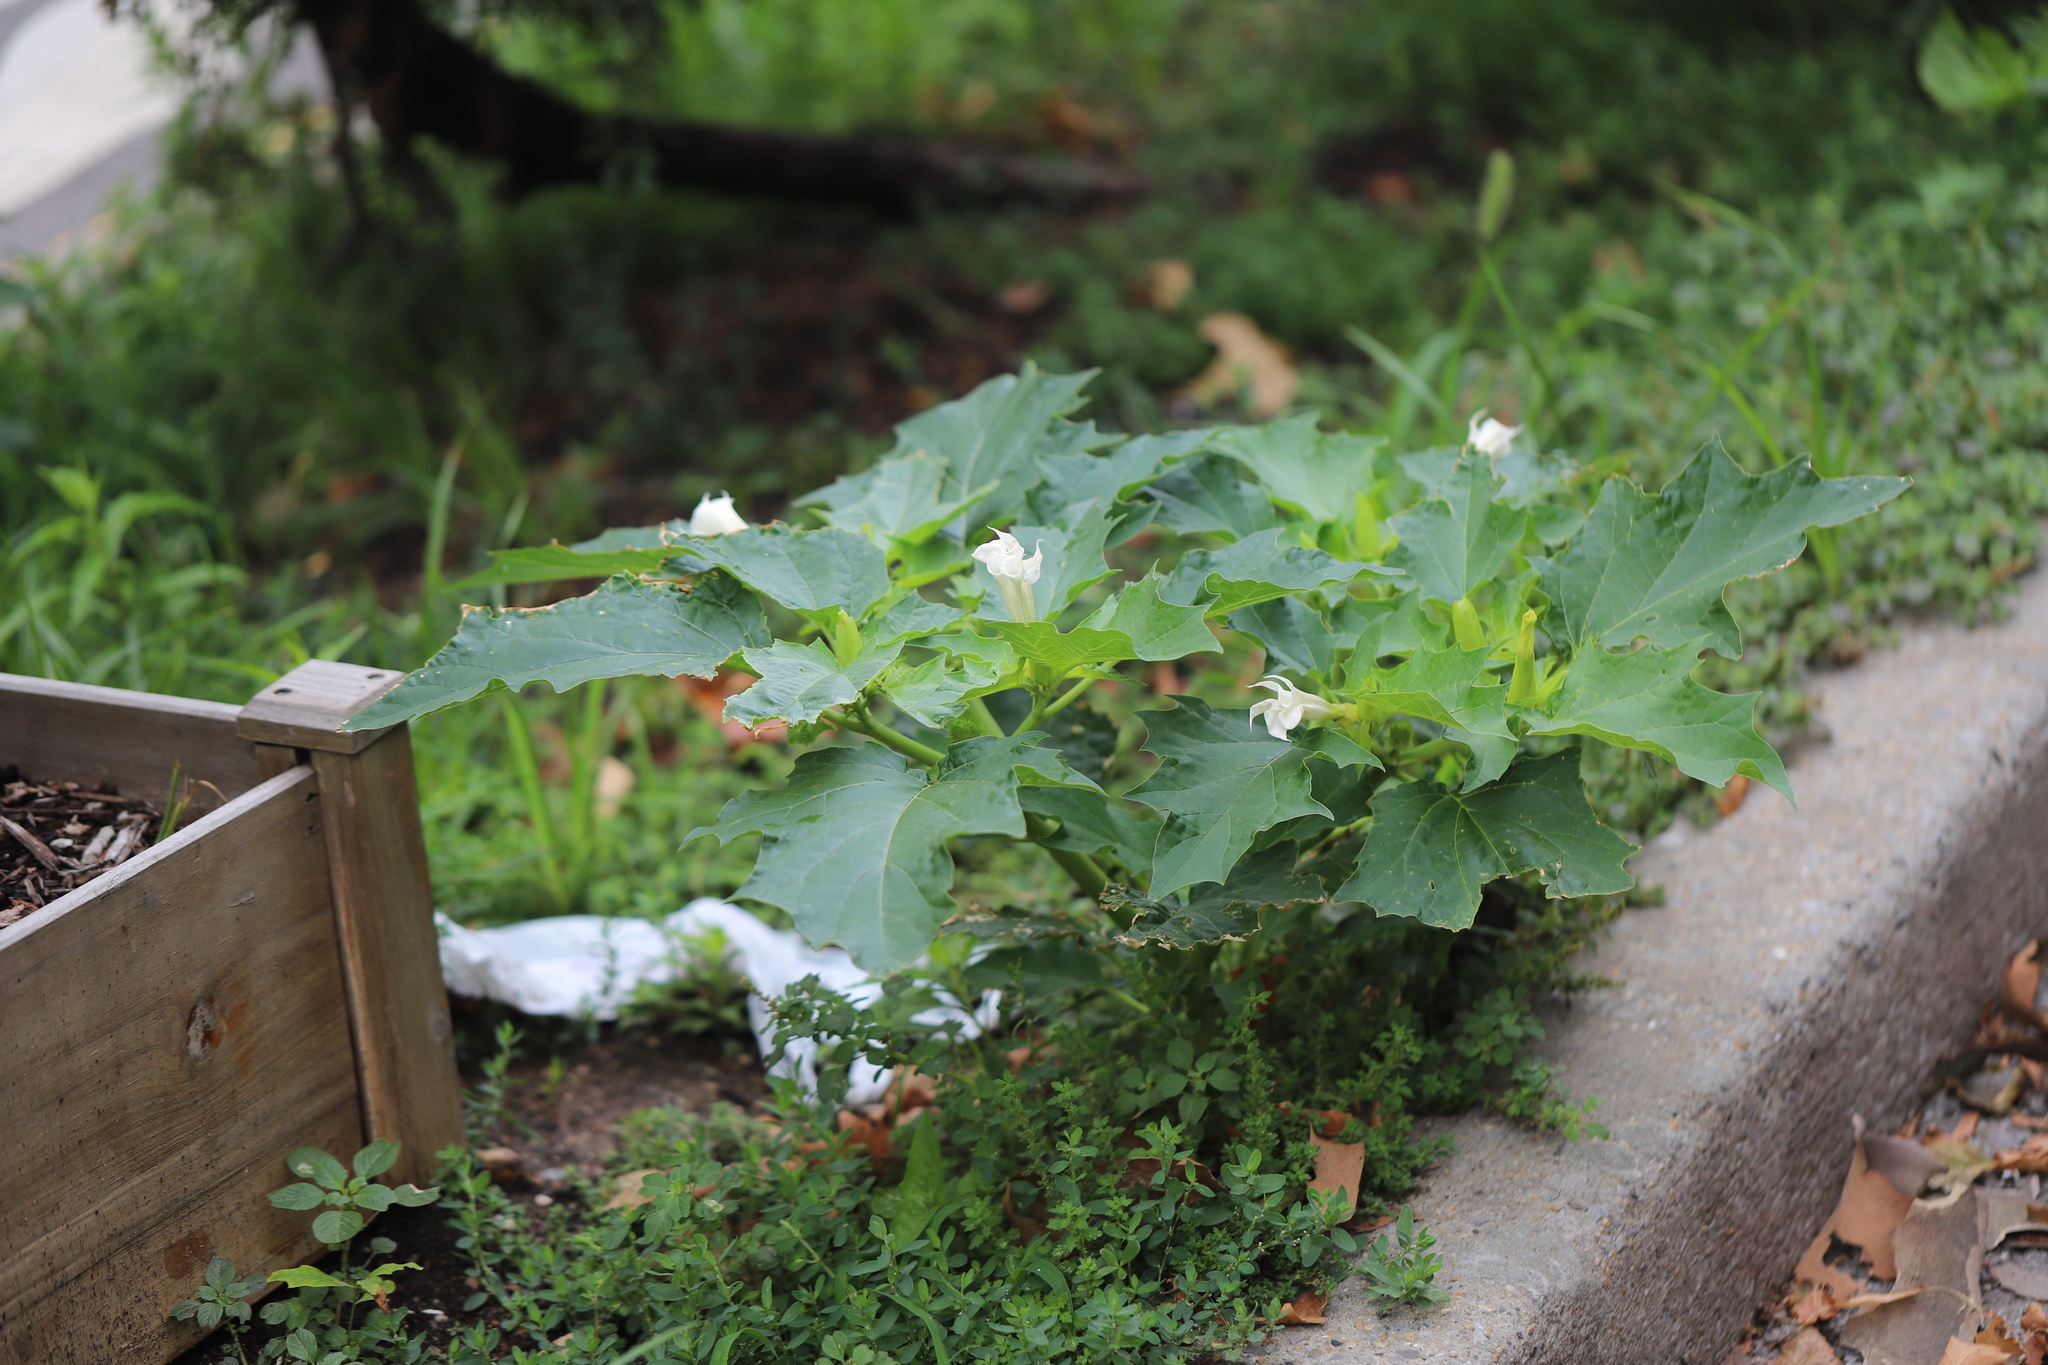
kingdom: Plantae
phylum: Tracheophyta
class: Magnoliopsida
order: Solanales
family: Solanaceae
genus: Datura
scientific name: Datura stramonium
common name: Thorn-apple
